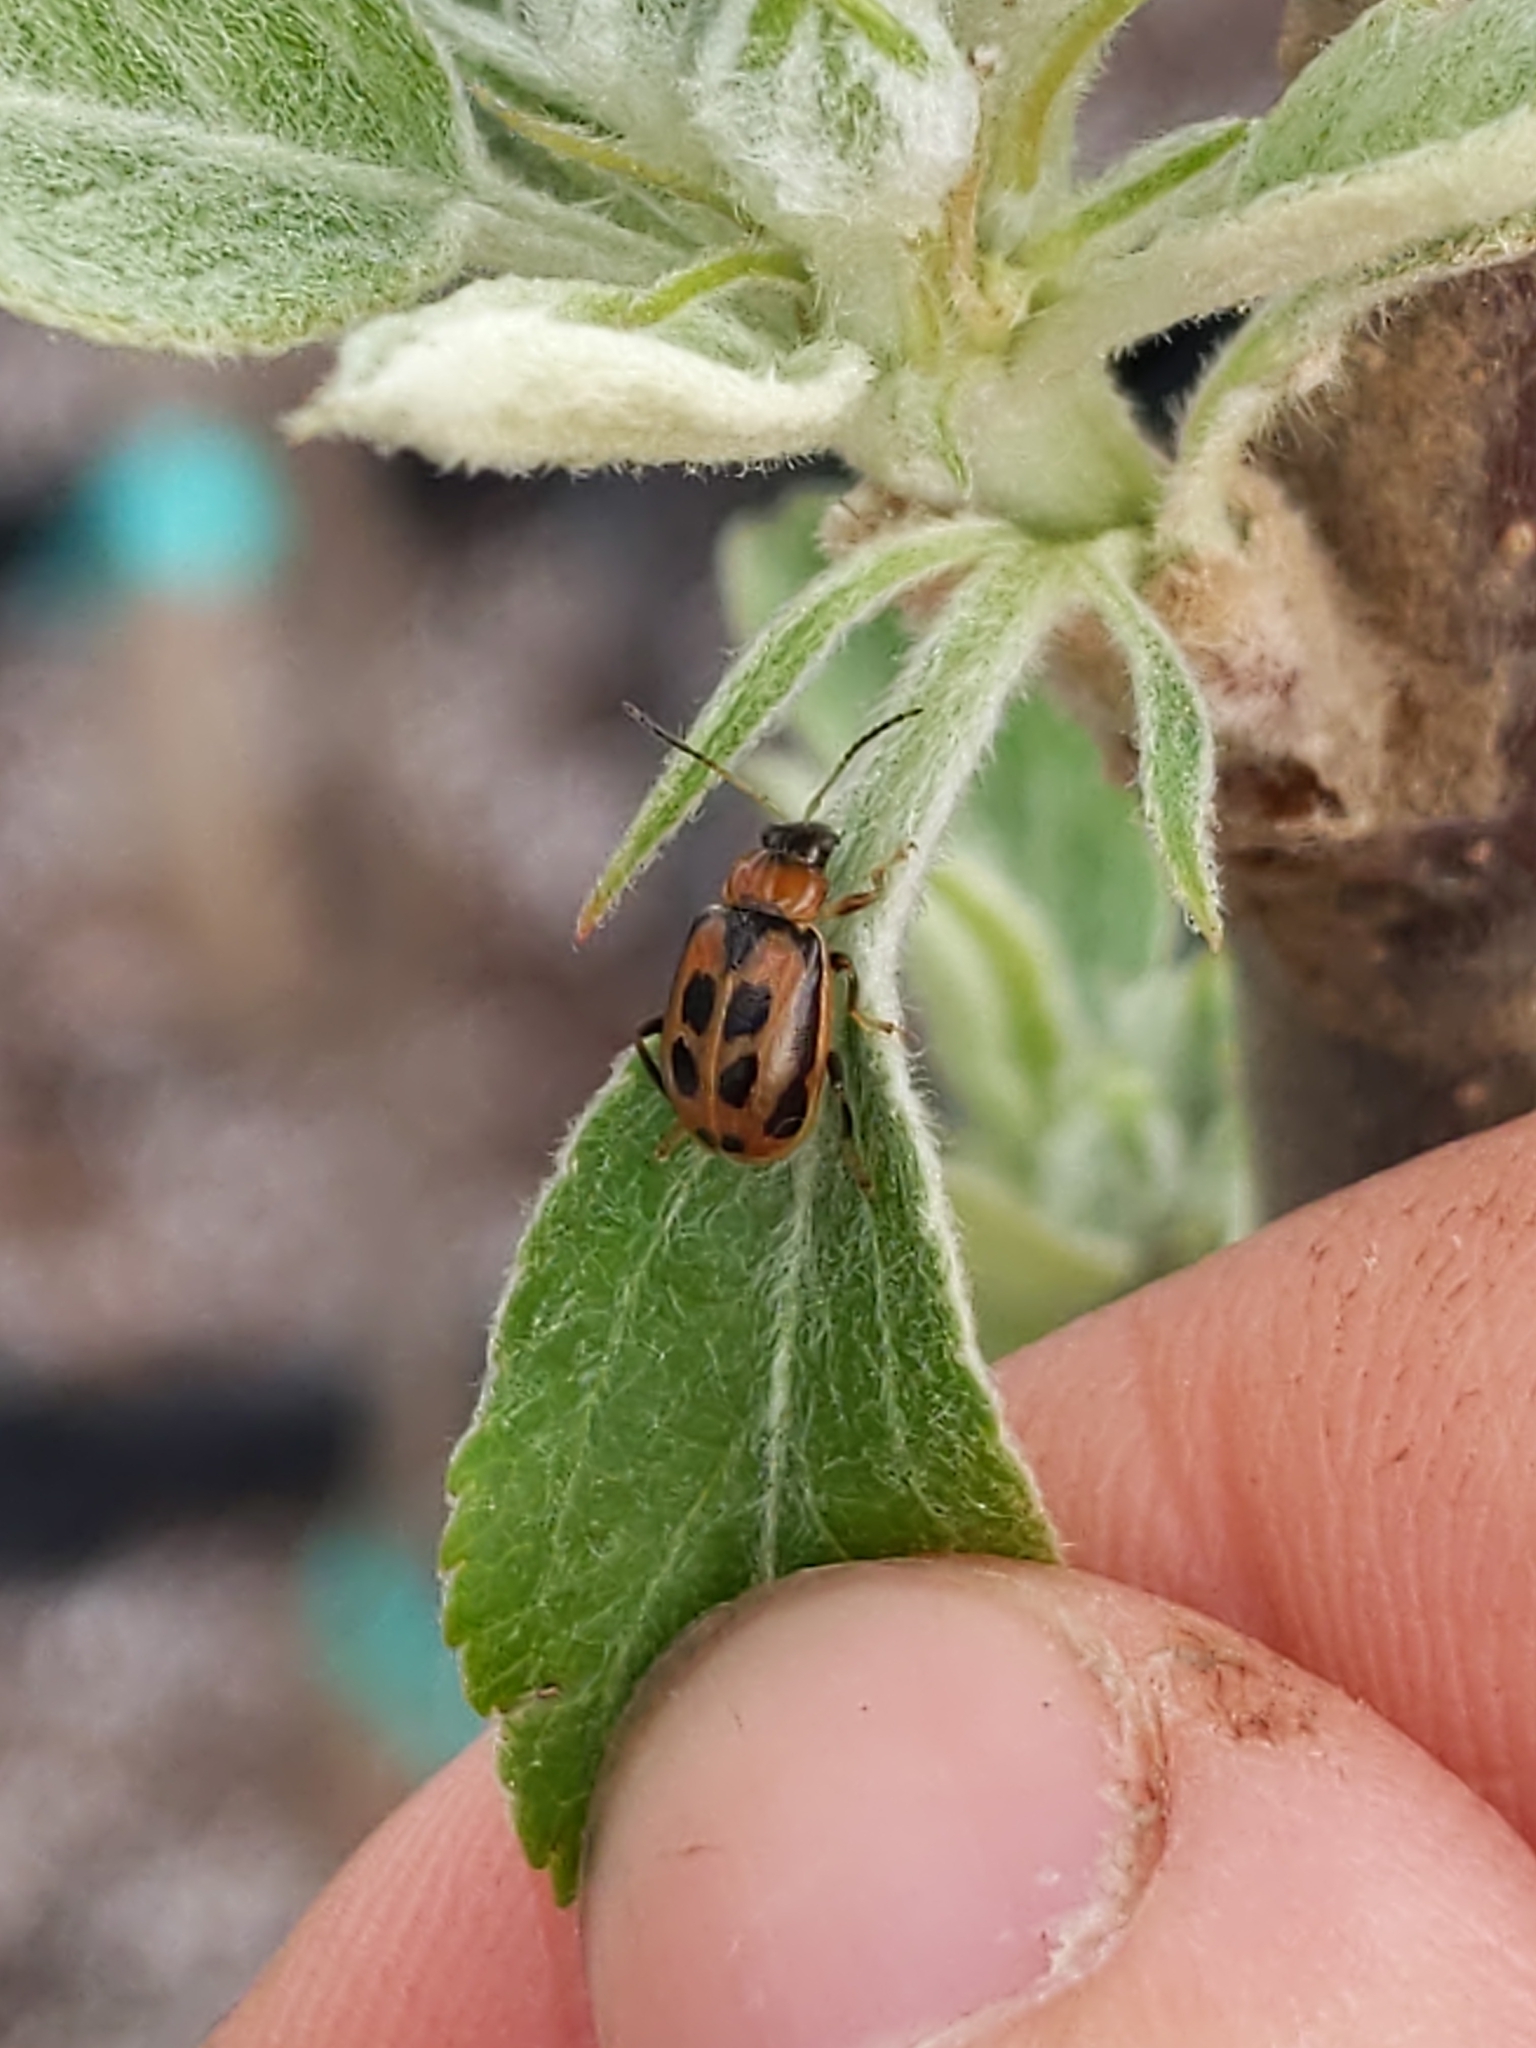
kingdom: Animalia
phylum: Arthropoda
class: Insecta
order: Coleoptera
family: Chrysomelidae
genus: Cerotoma
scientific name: Cerotoma trifurcata
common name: Bean leaf beetle
